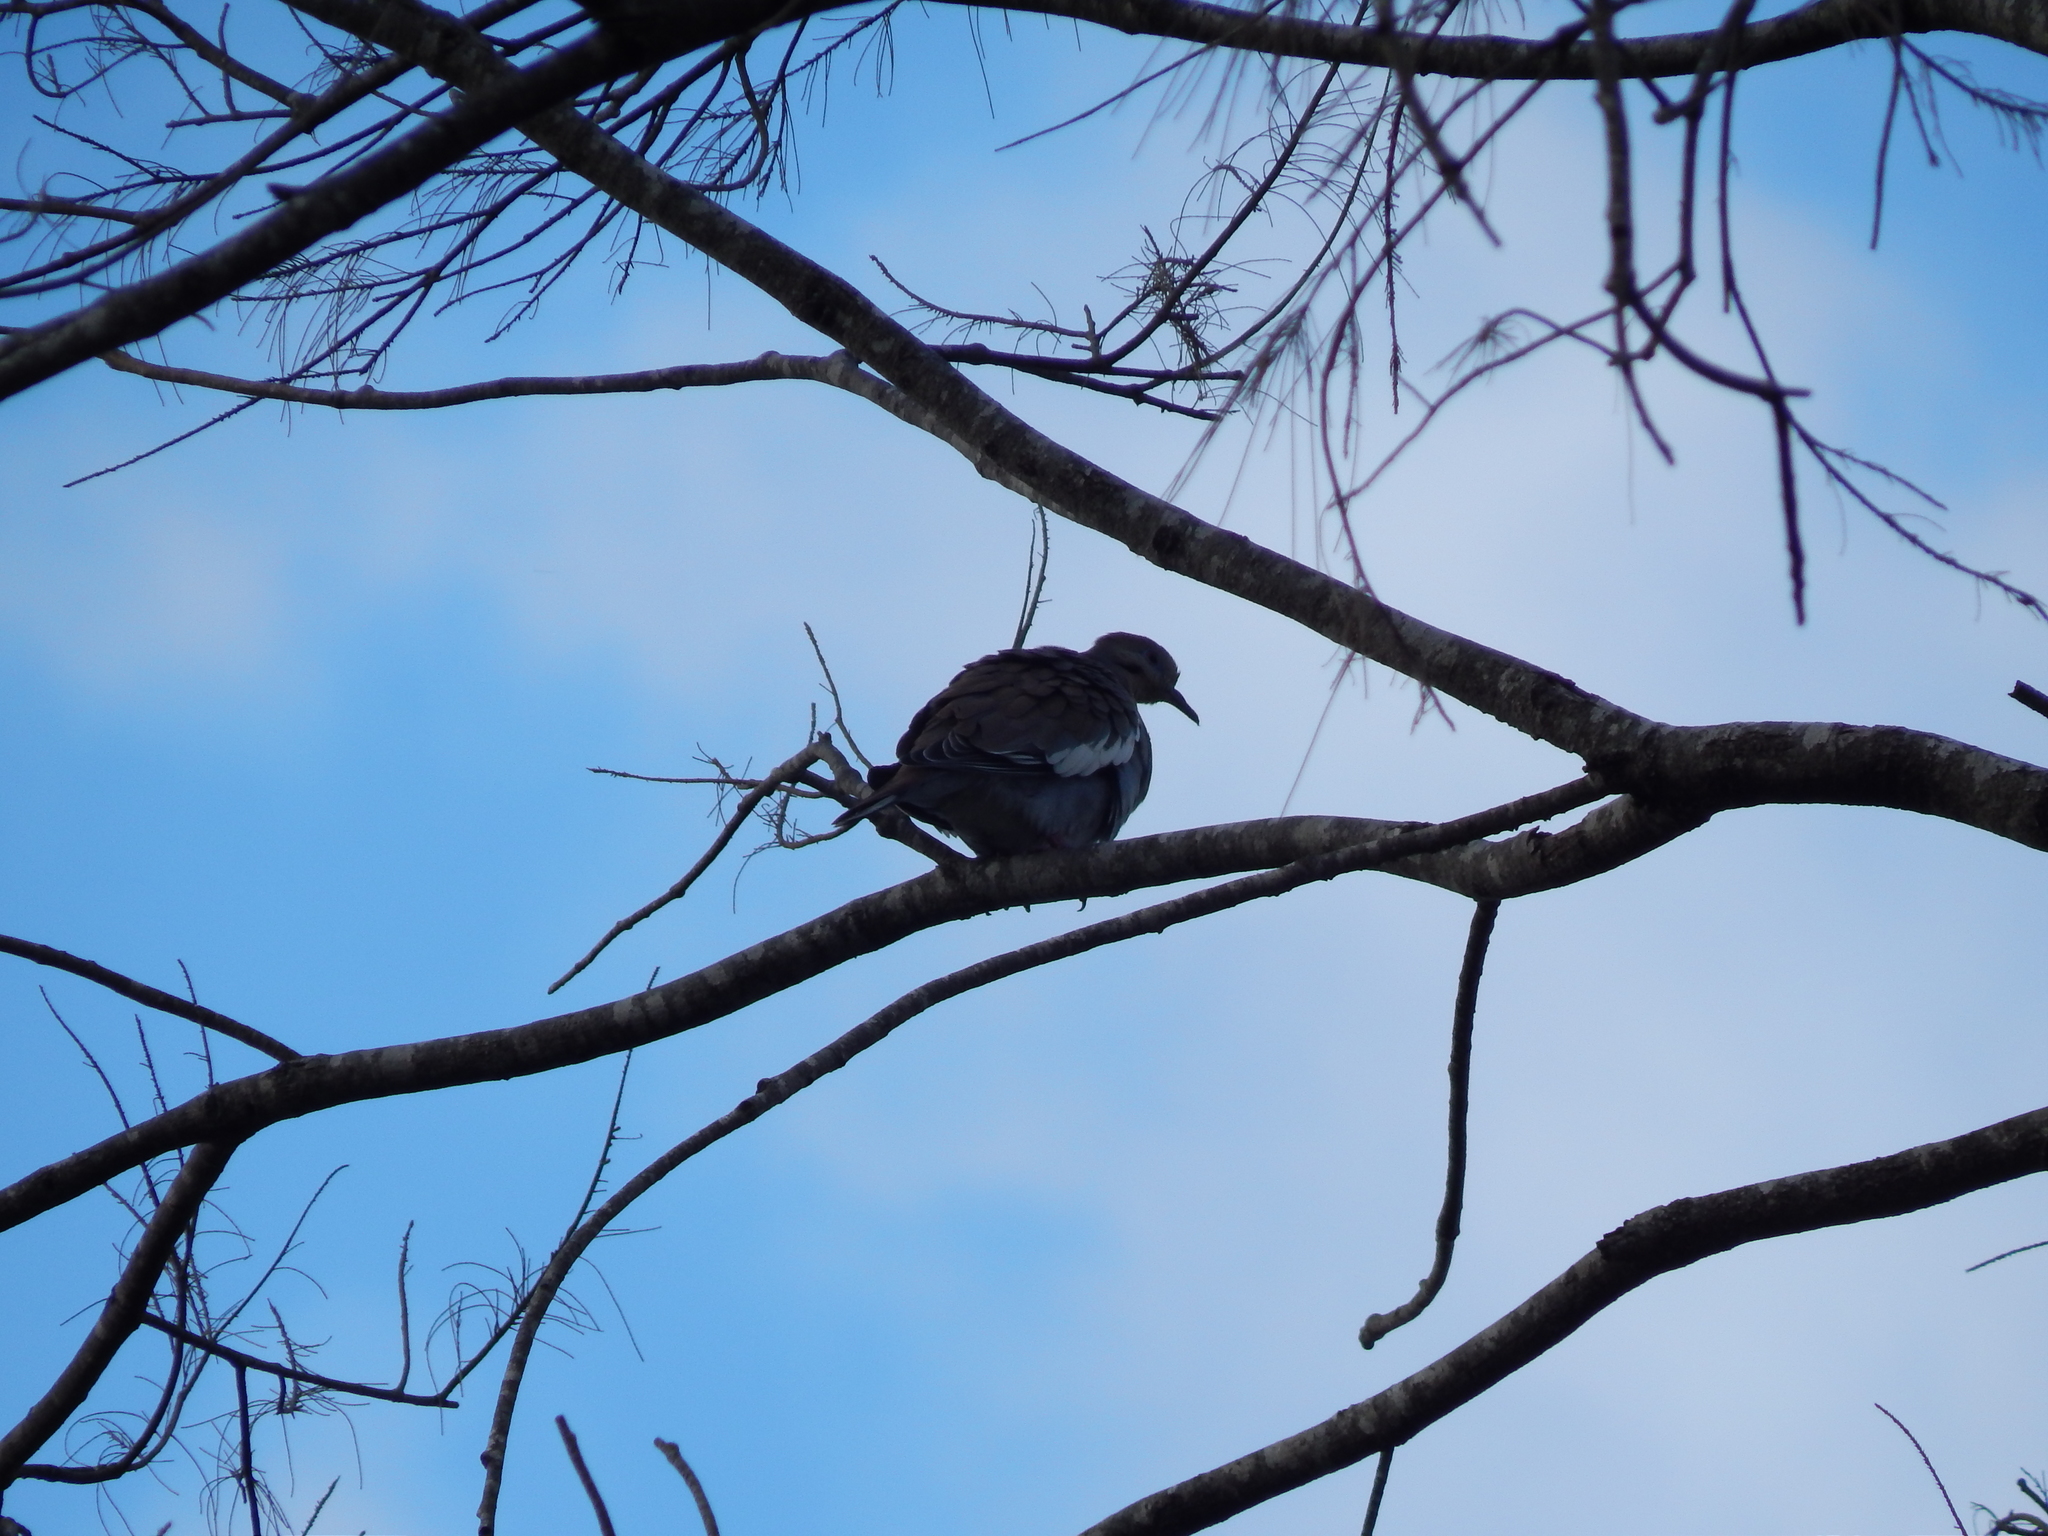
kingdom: Animalia
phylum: Chordata
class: Aves
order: Columbiformes
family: Columbidae
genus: Zenaida
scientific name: Zenaida asiatica
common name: White-winged dove
